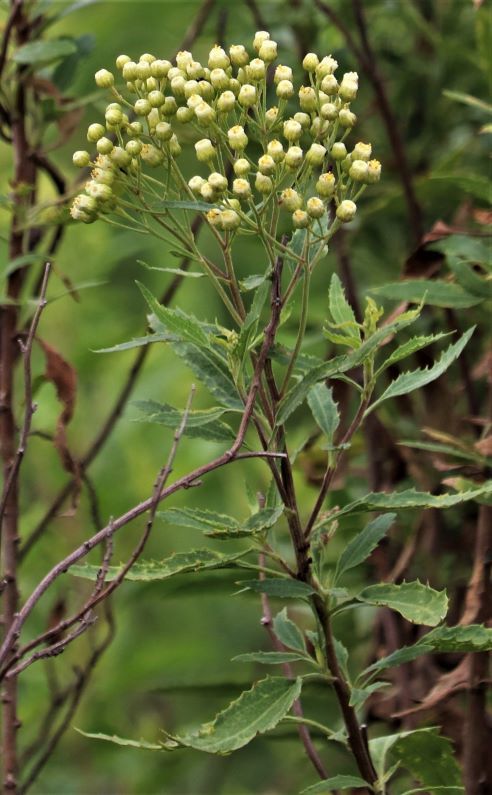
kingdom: Plantae
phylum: Tracheophyta
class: Magnoliopsida
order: Asterales
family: Asteraceae
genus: Nidorella
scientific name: Nidorella ivifolia
